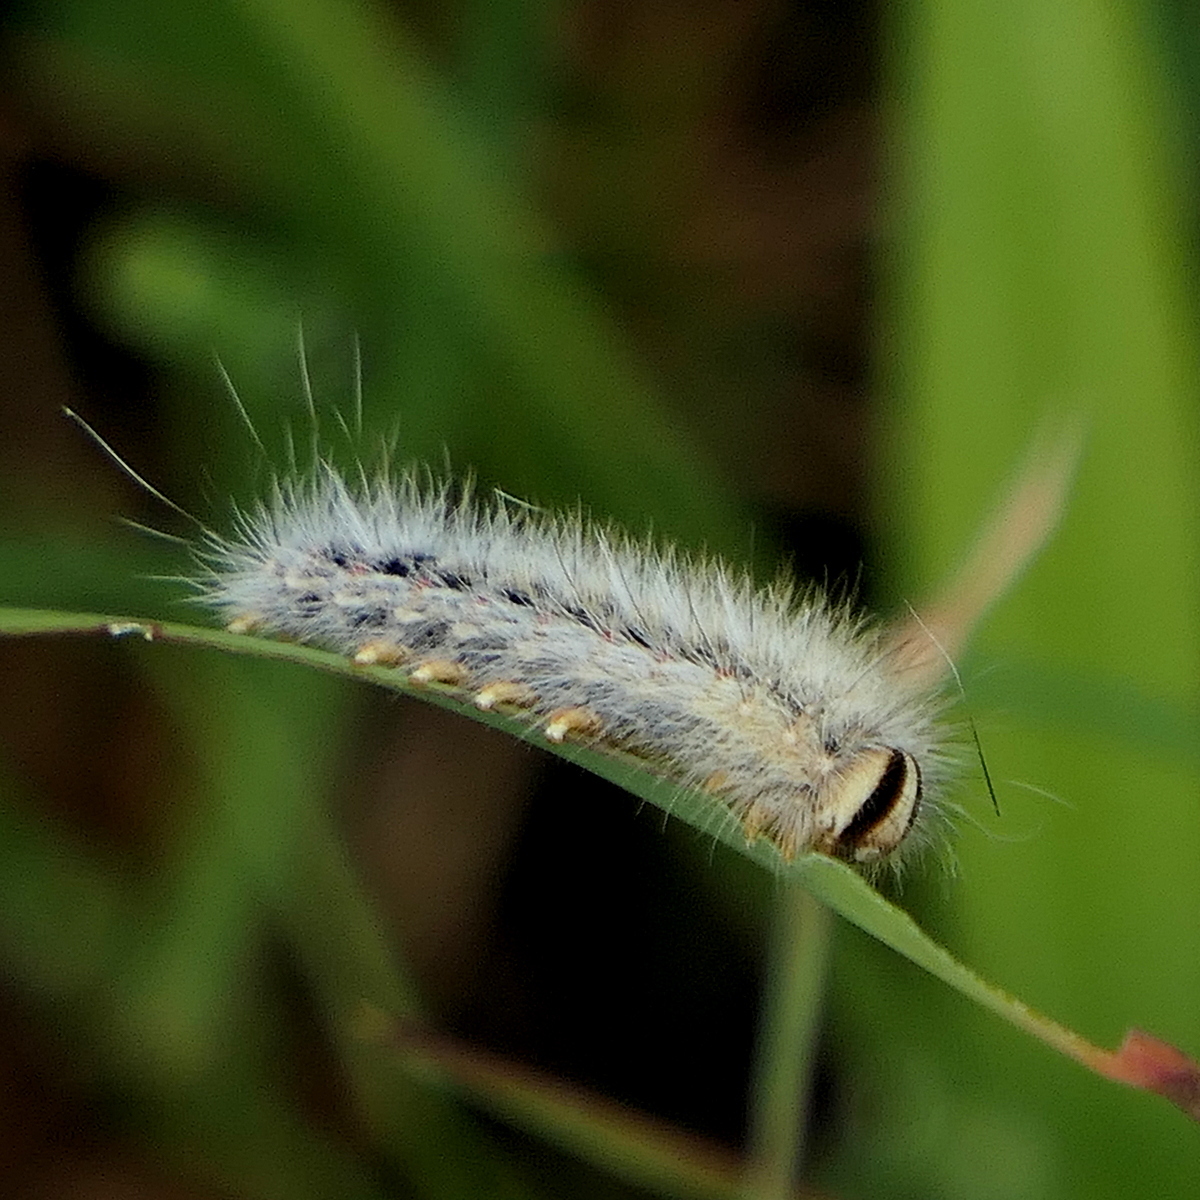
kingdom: Animalia
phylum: Arthropoda
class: Insecta
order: Lepidoptera
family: Anthelidae
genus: Anthela
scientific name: Anthela ocellata
